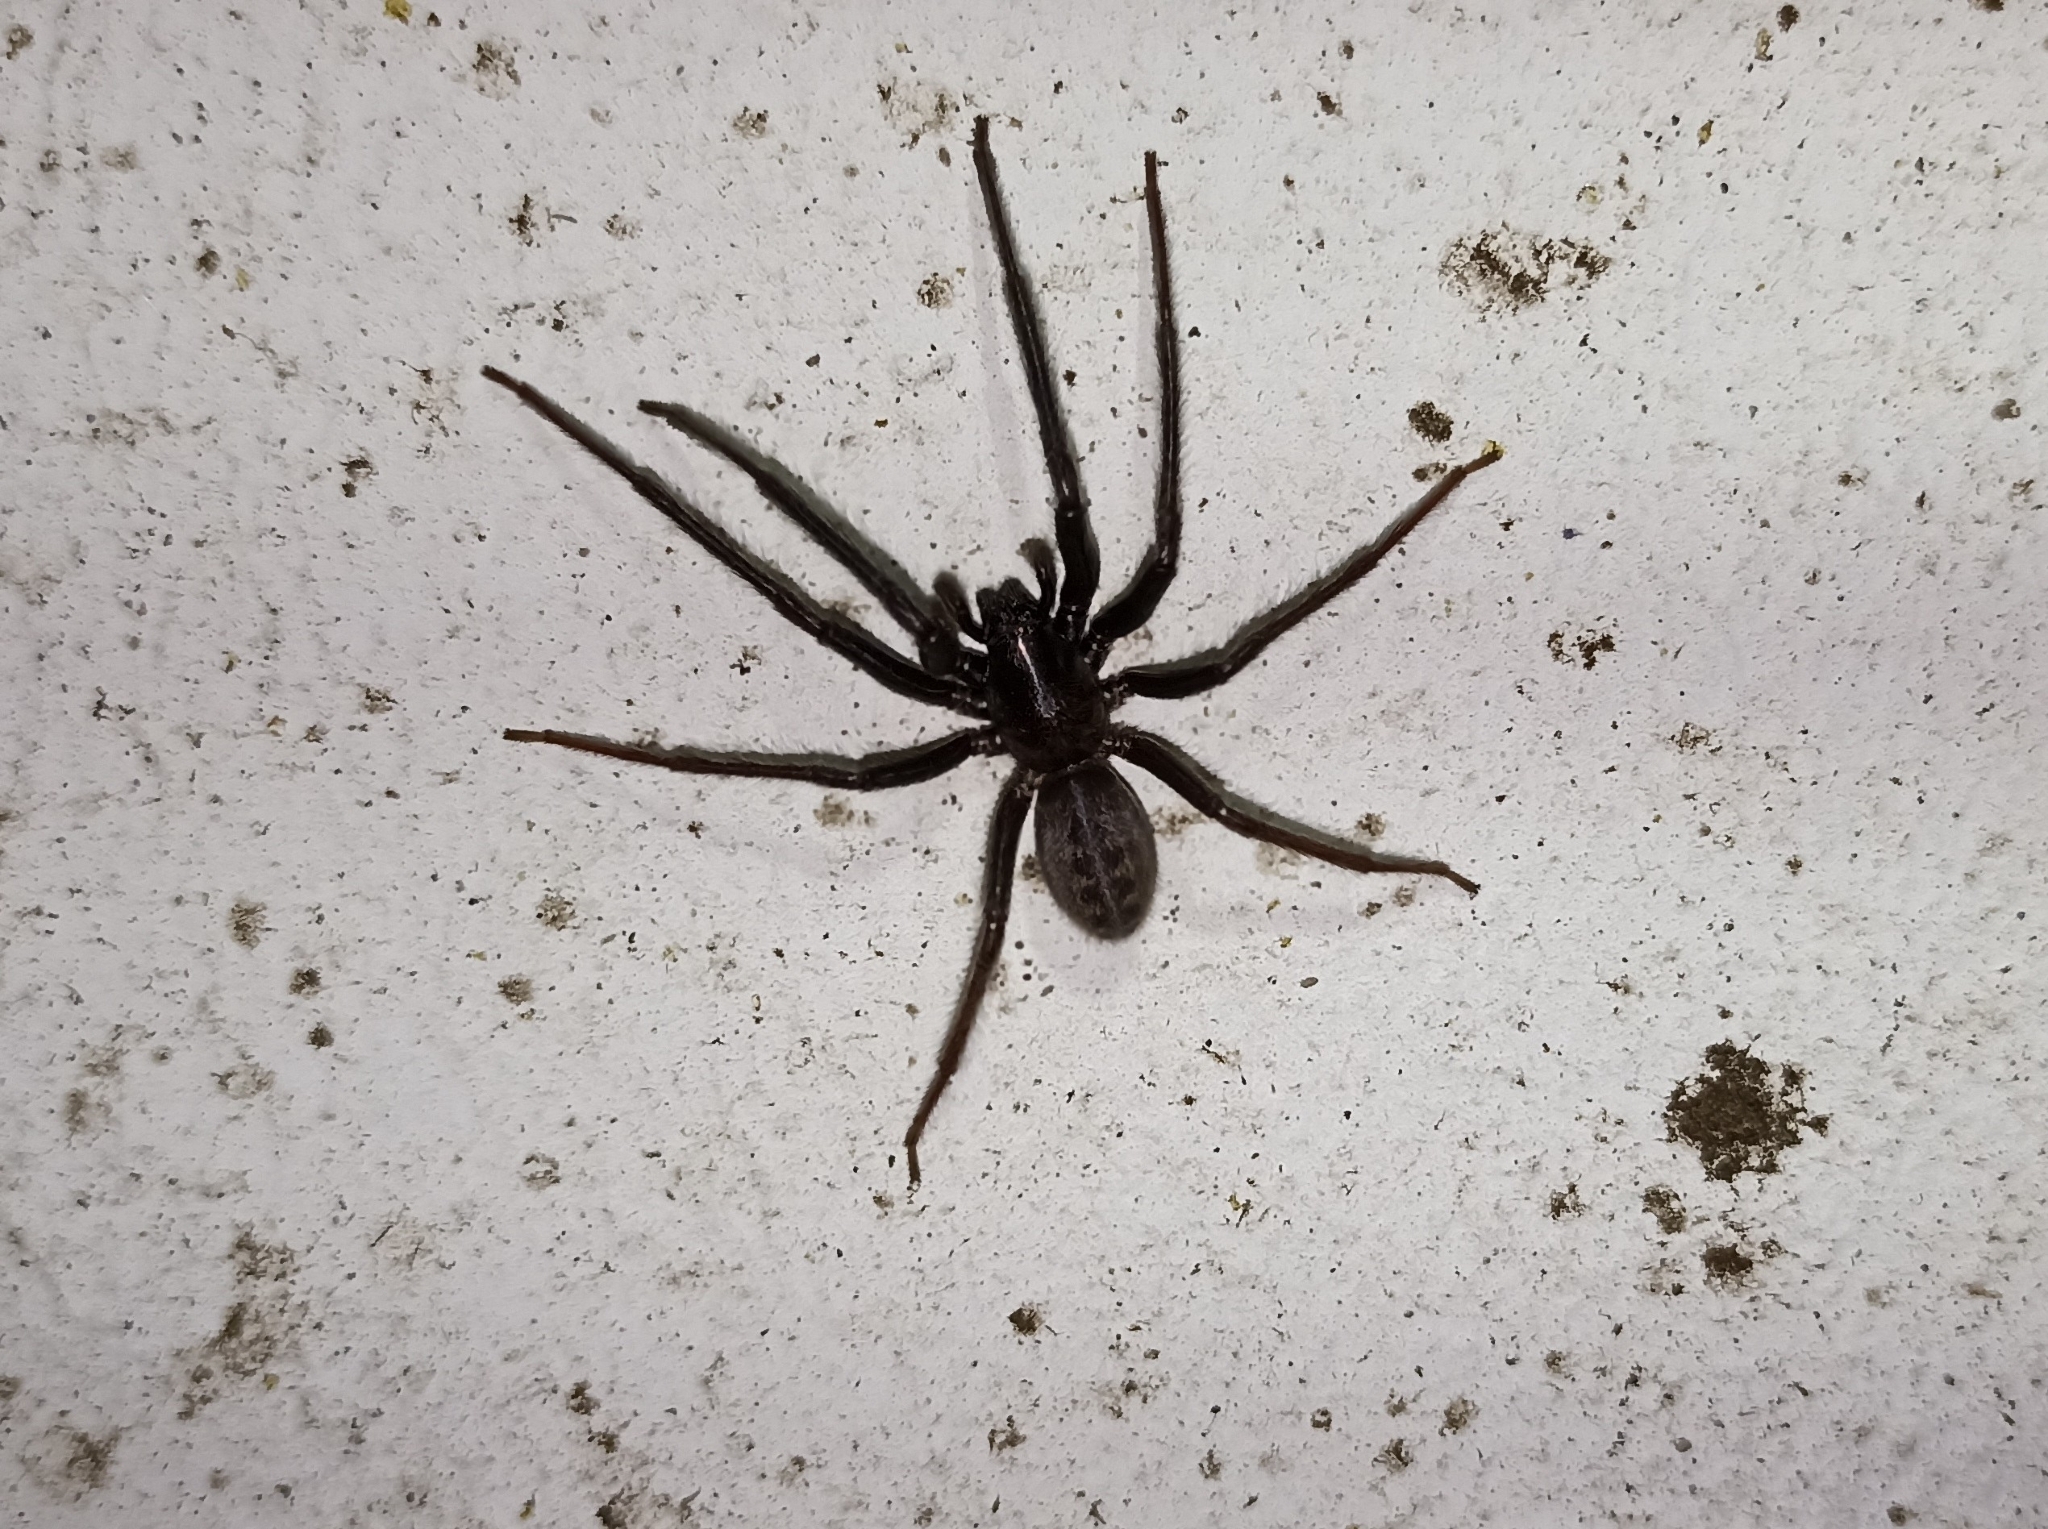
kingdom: Animalia
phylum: Arthropoda
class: Arachnida
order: Araneae
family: Segestriidae
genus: Segestria
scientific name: Segestria florentina
